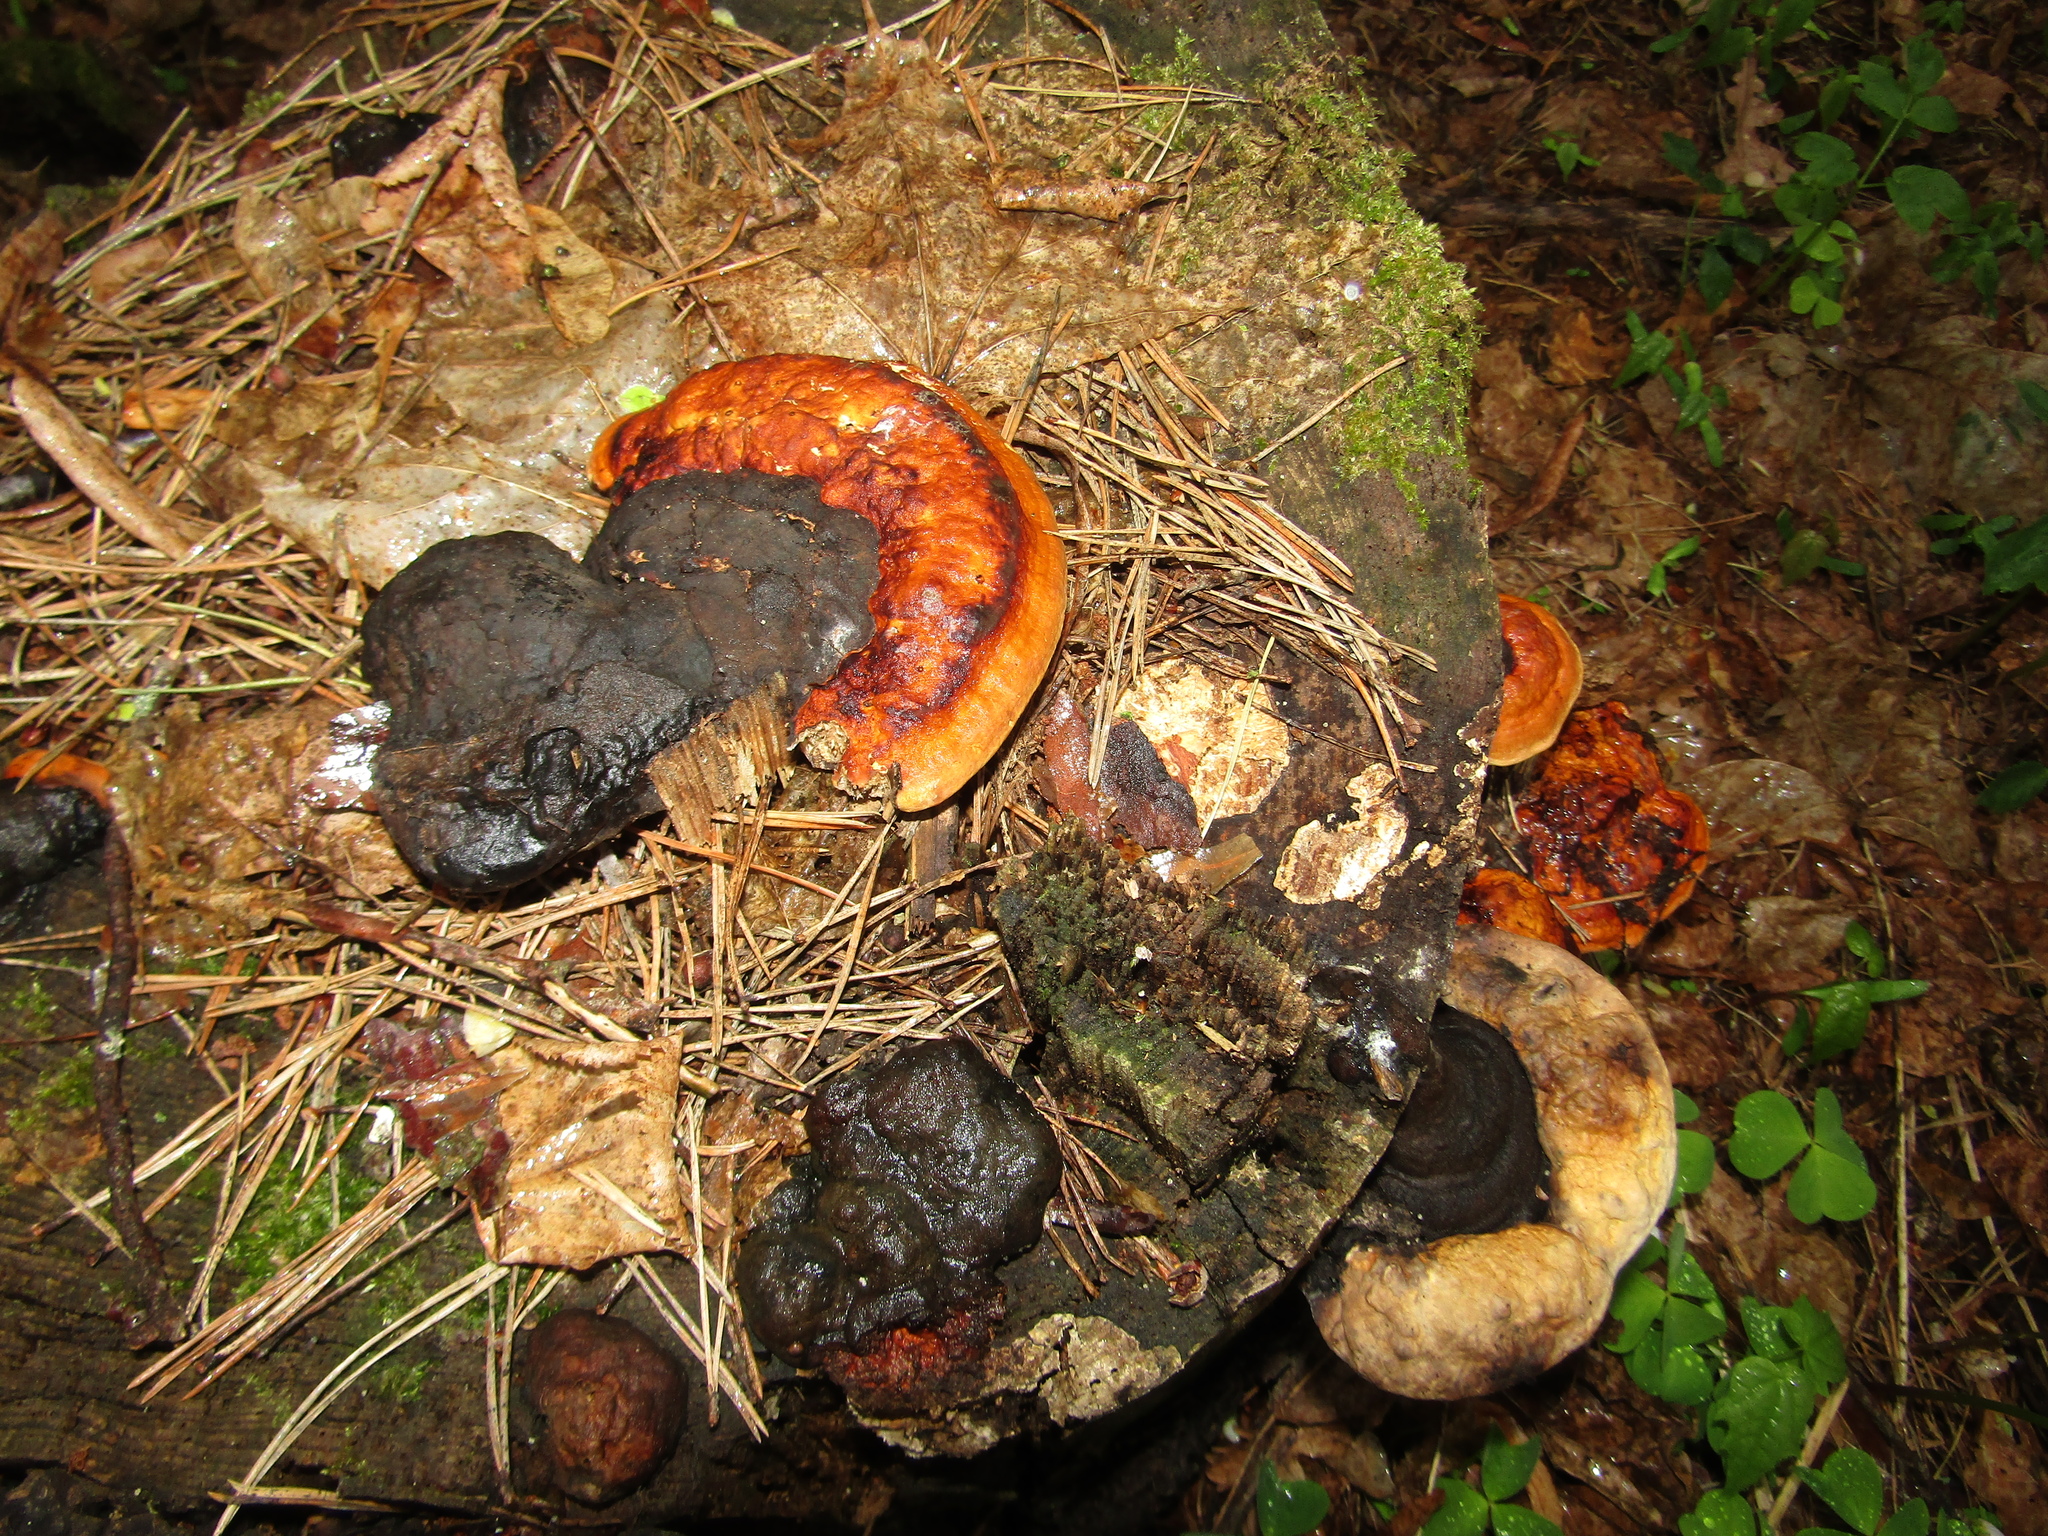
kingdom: Fungi
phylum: Basidiomycota
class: Agaricomycetes
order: Polyporales
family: Fomitopsidaceae
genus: Fomitopsis
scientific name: Fomitopsis pinicola
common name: Red-belted bracket
